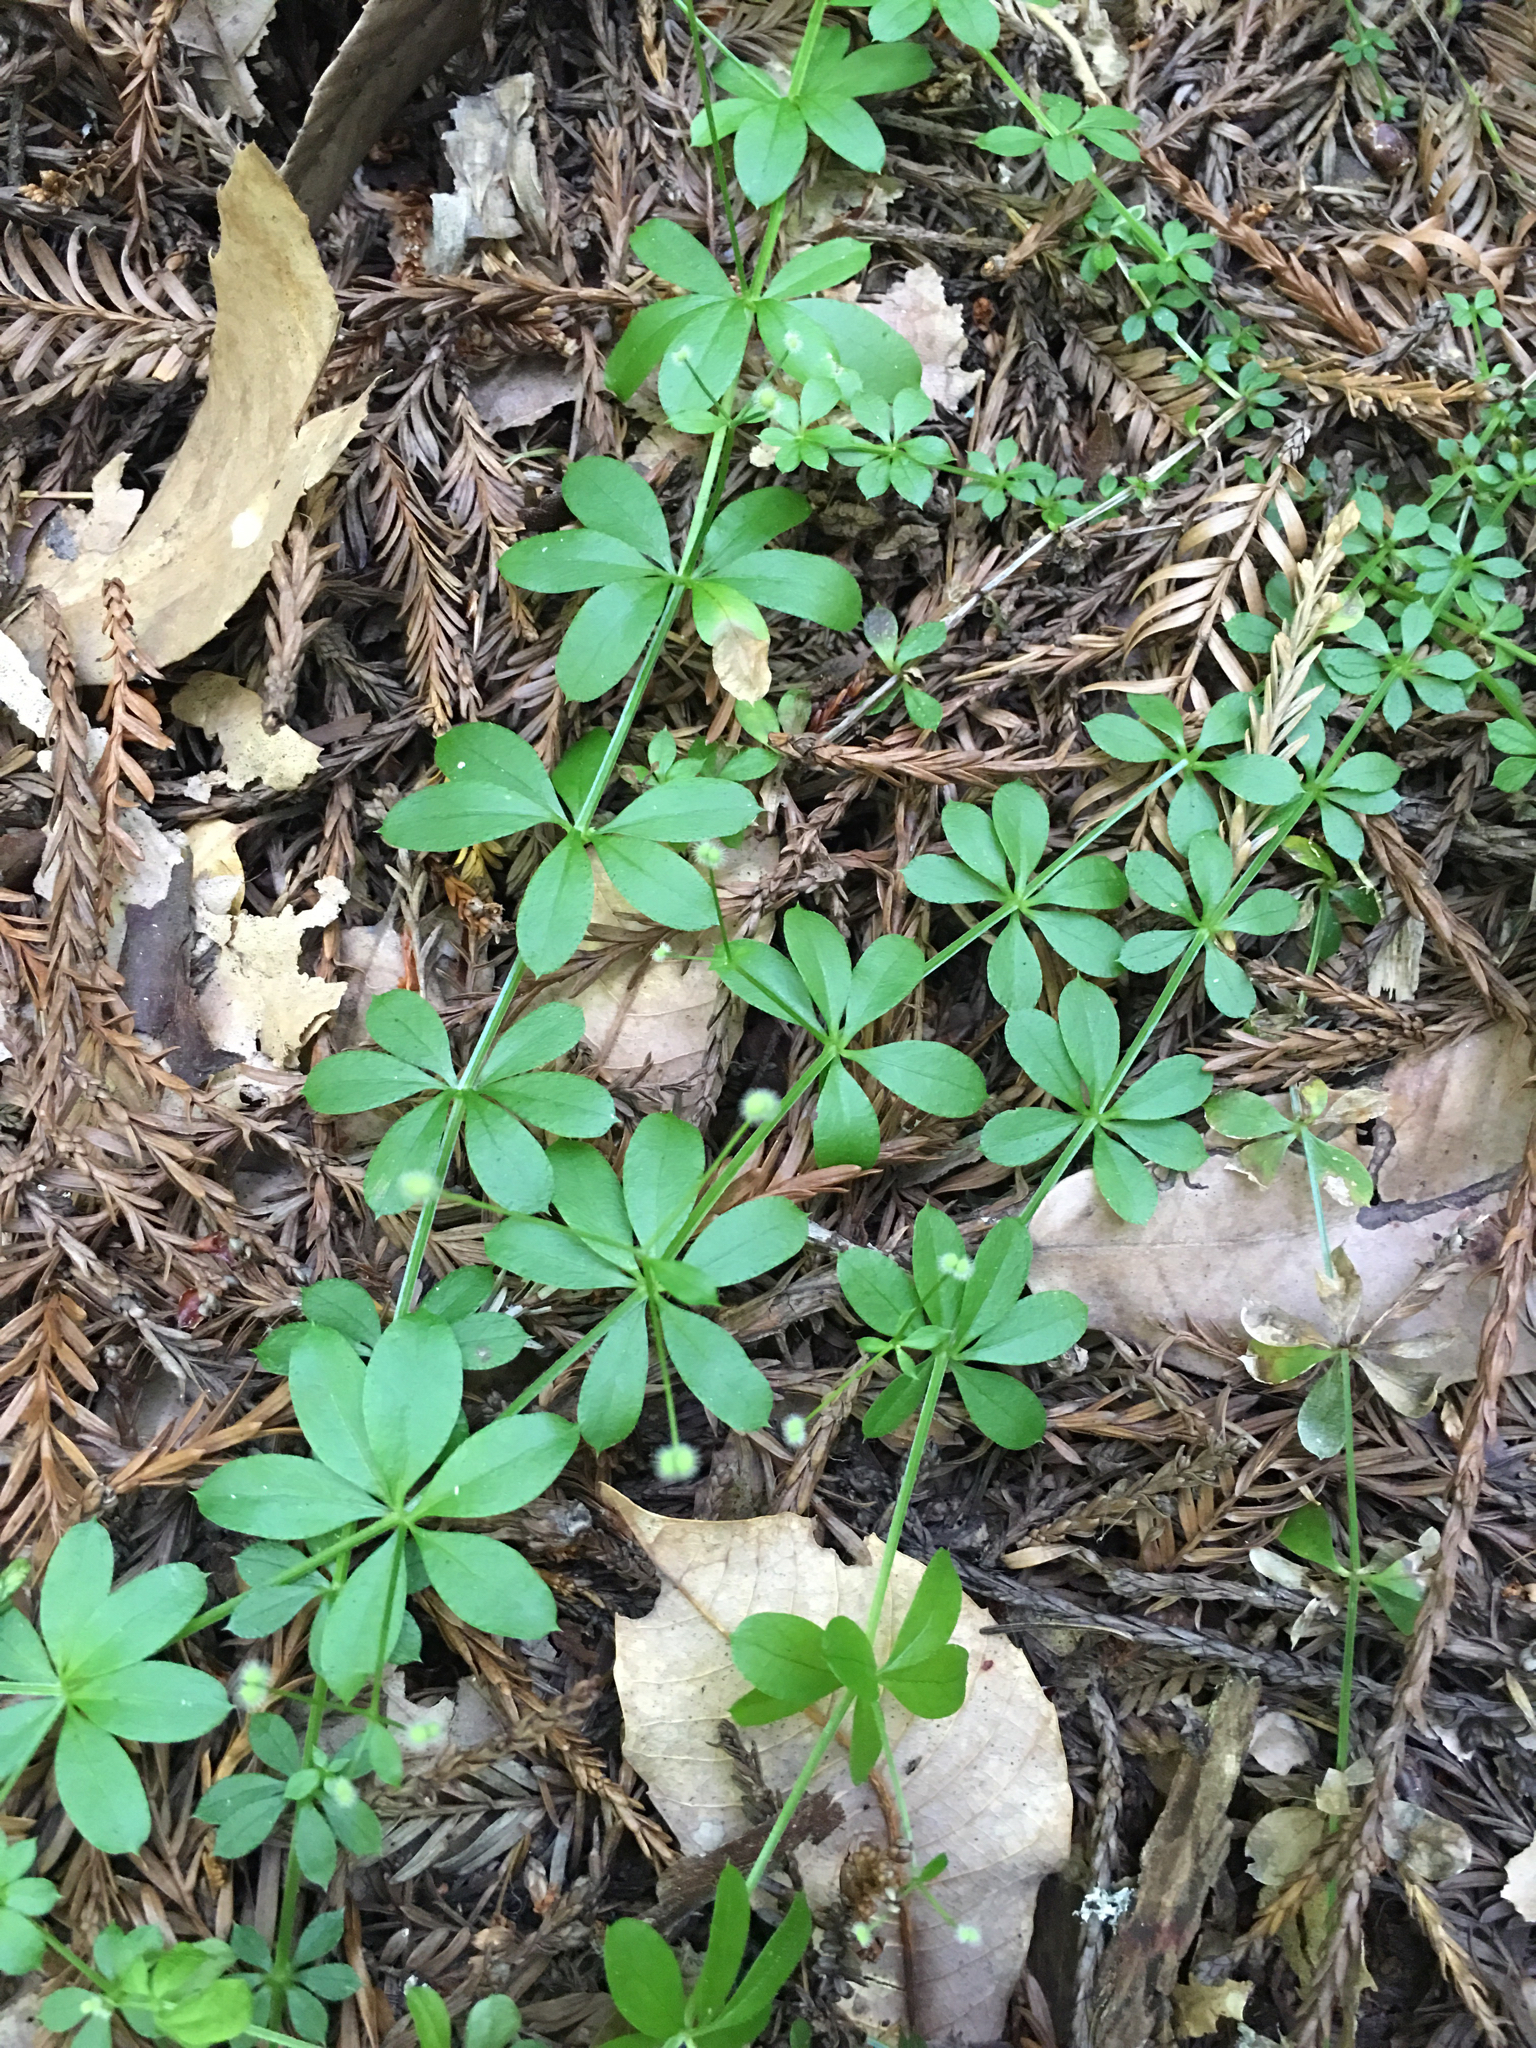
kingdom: Plantae
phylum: Tracheophyta
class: Magnoliopsida
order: Gentianales
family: Rubiaceae
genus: Galium
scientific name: Galium triflorum
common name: Fragrant bedstraw
